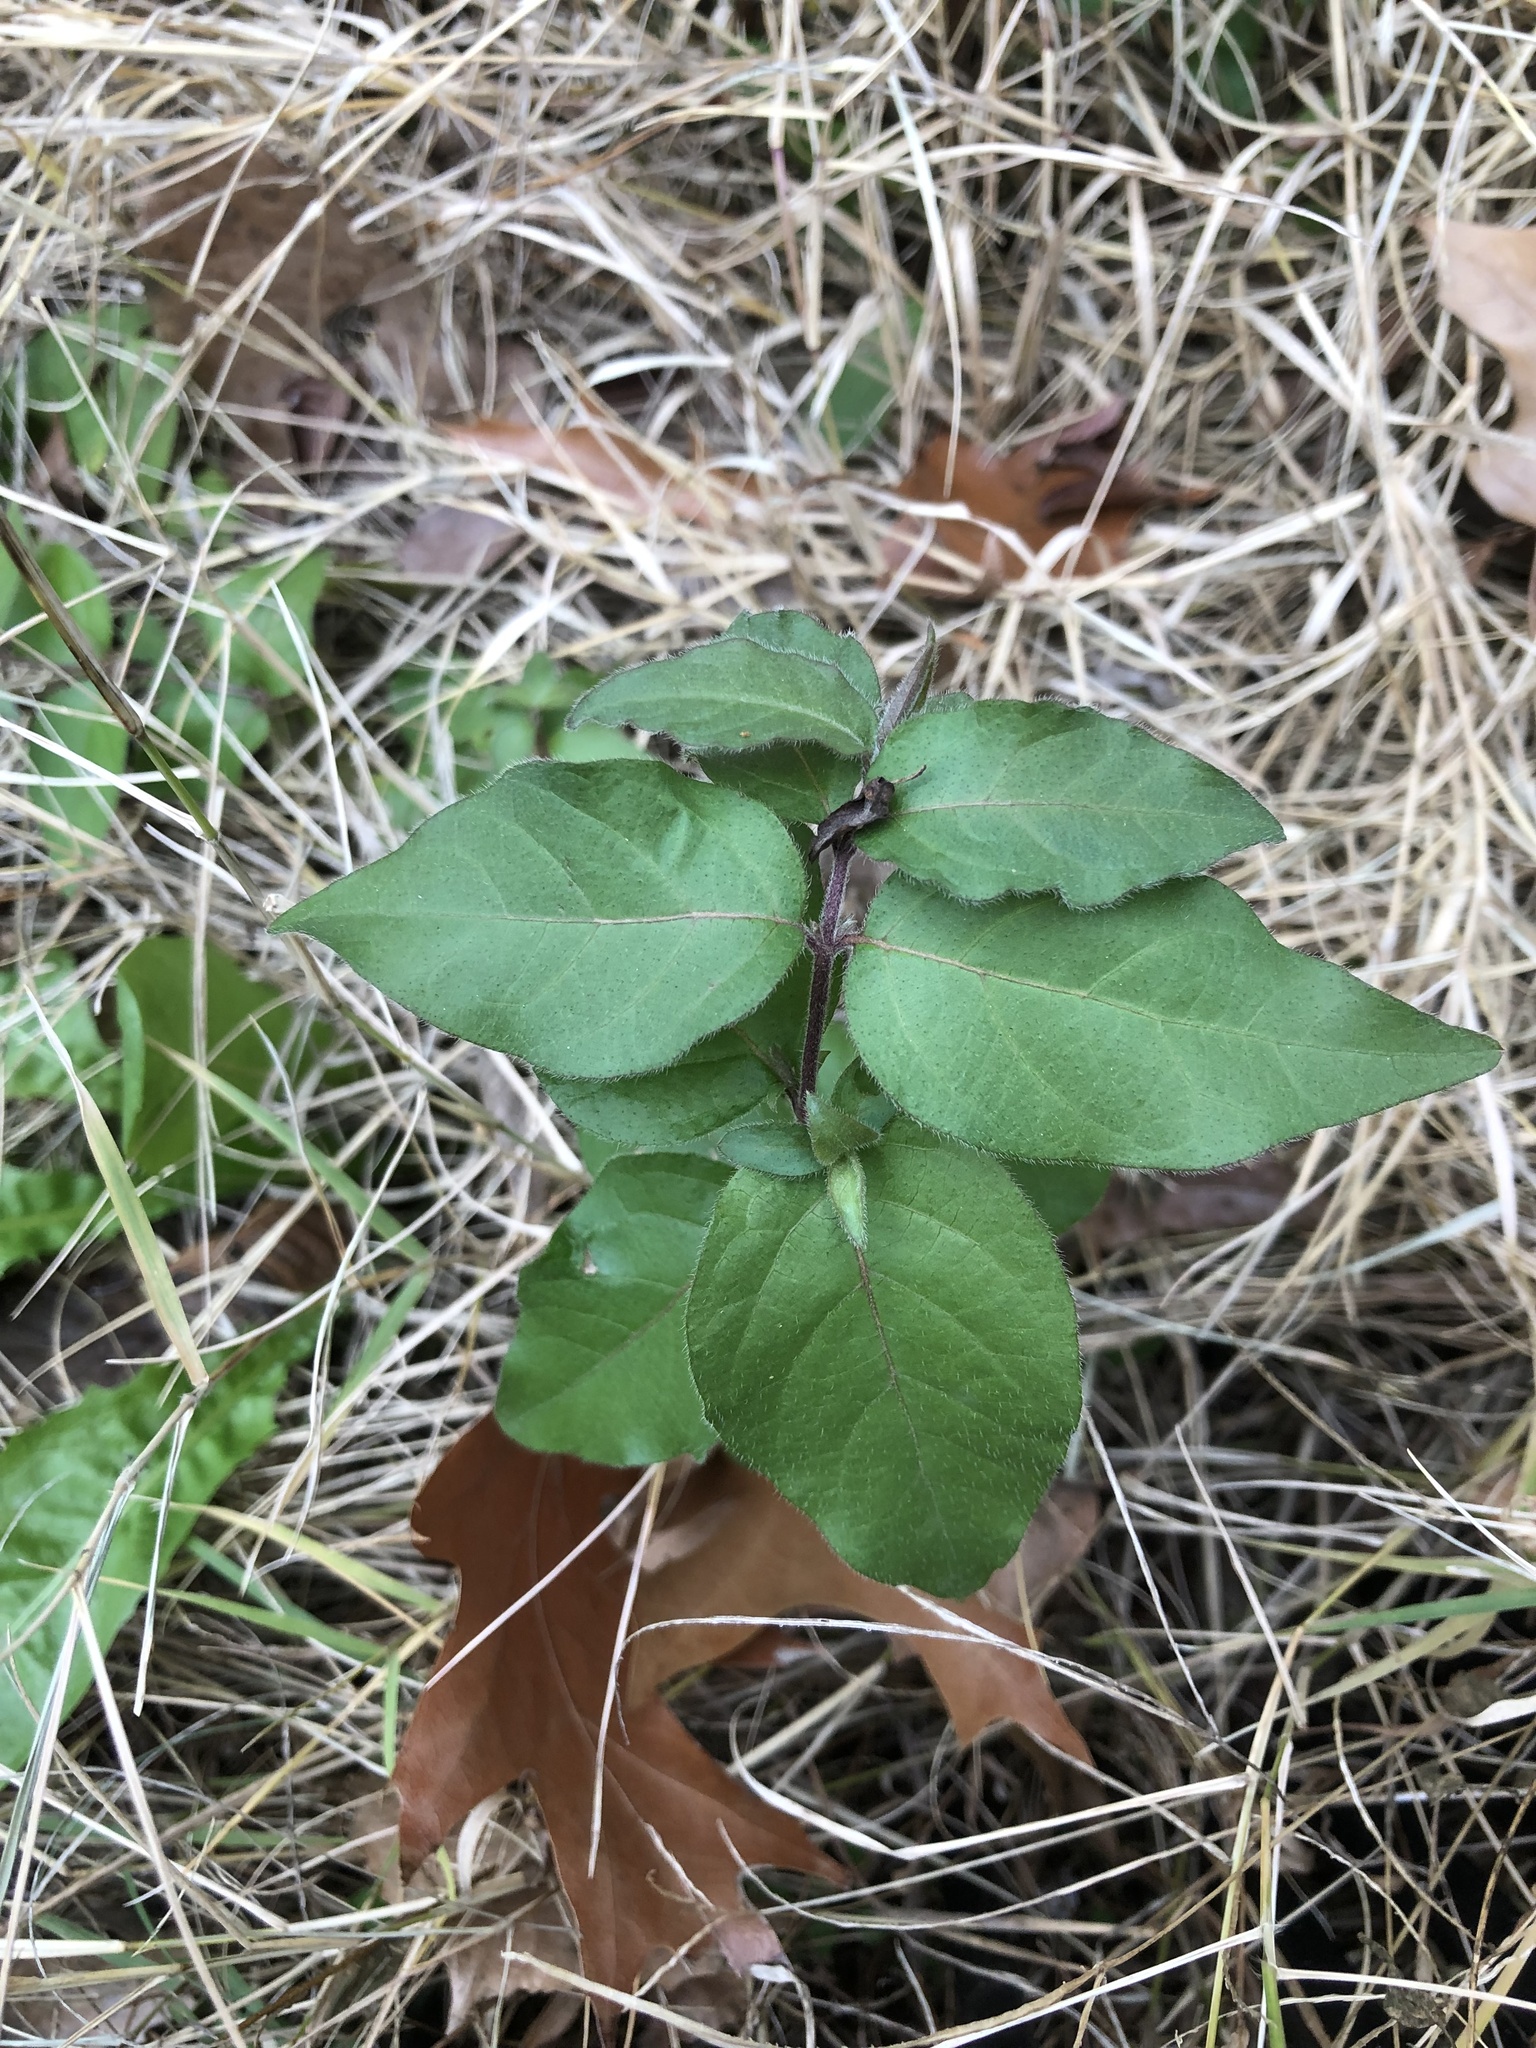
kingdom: Plantae
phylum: Tracheophyta
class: Magnoliopsida
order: Dipsacales
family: Caprifoliaceae
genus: Lonicera
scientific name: Lonicera maackii
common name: Amur honeysuckle
